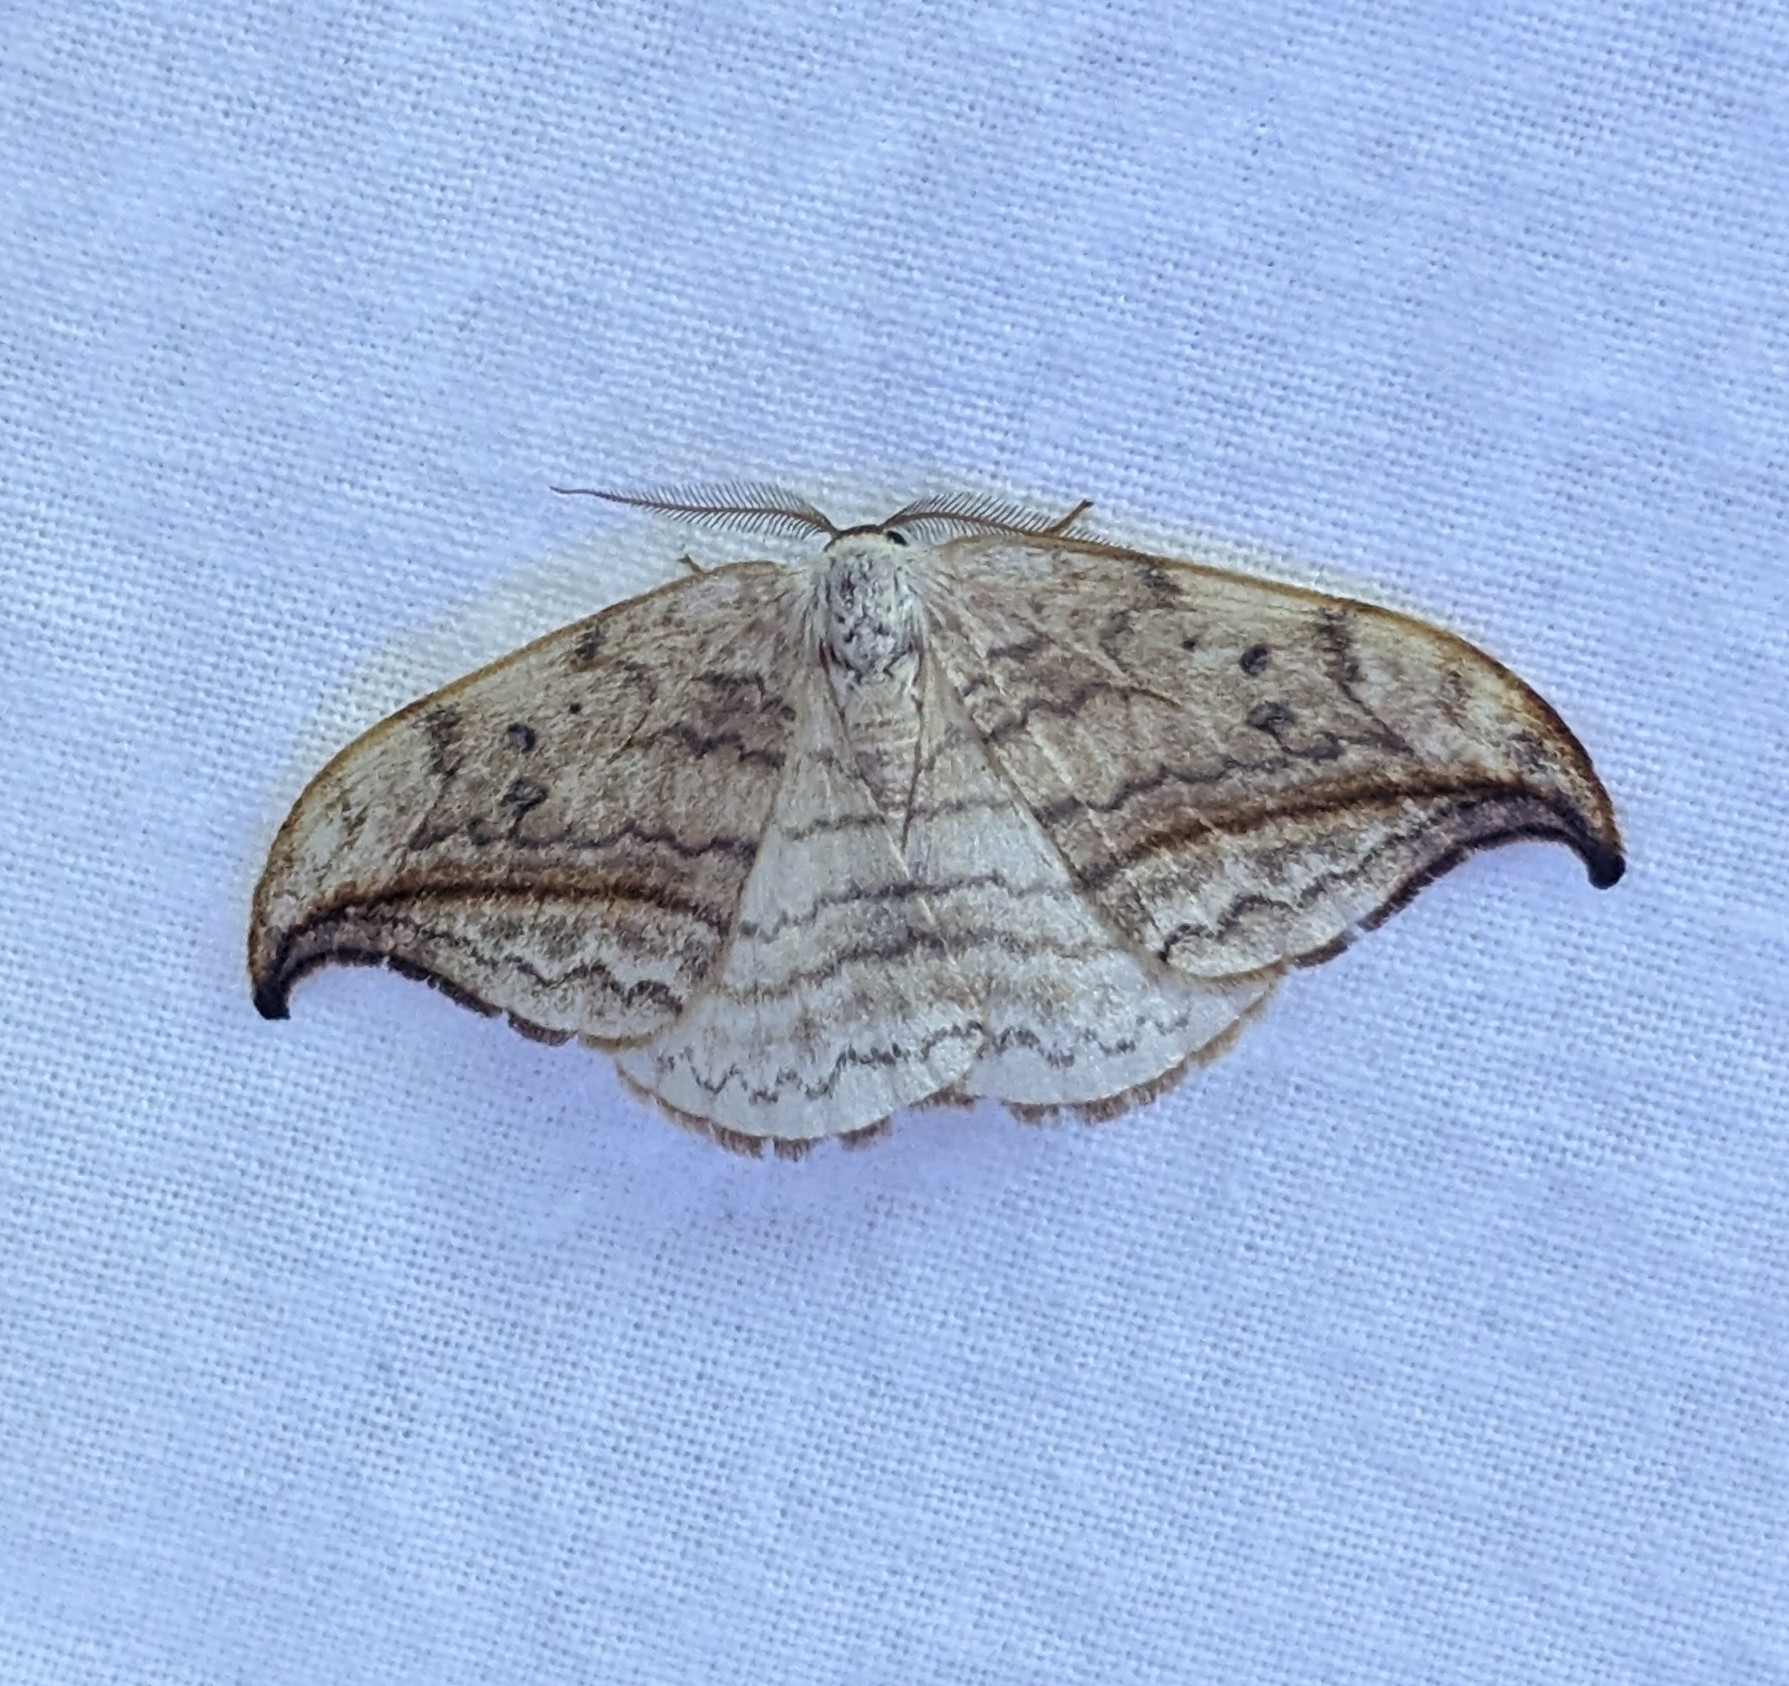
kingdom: Animalia
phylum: Arthropoda
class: Insecta
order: Lepidoptera
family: Drepanidae
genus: Drepana
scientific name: Drepana arcuata
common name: Arched hooktip moth
